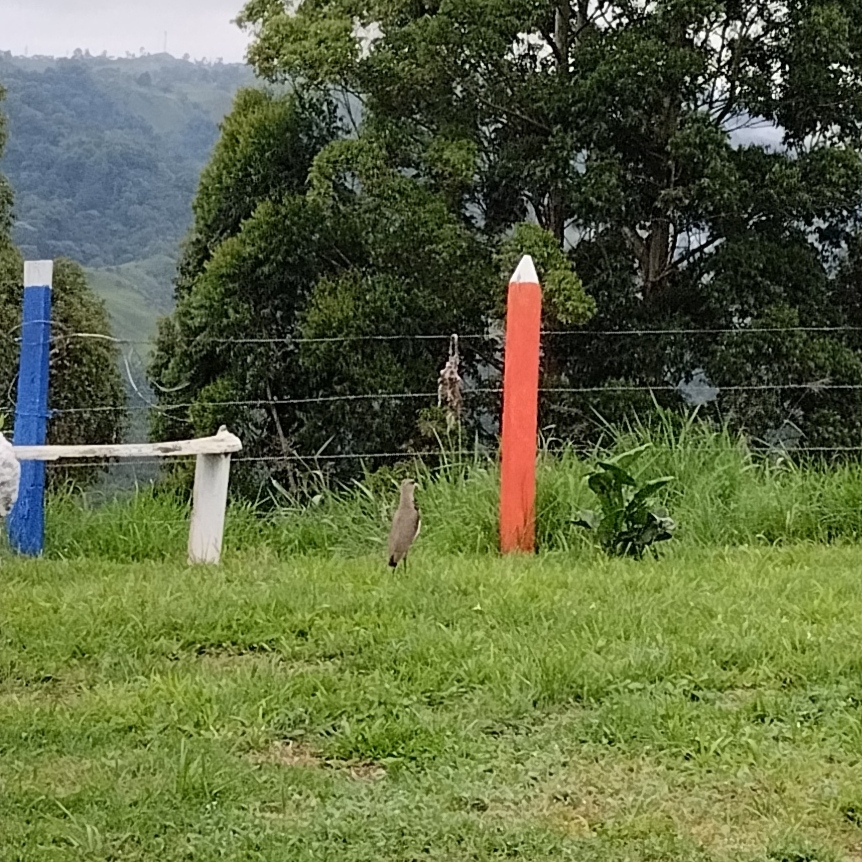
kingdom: Animalia
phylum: Chordata
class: Aves
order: Charadriiformes
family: Charadriidae
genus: Vanellus
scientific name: Vanellus chilensis
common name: Southern lapwing
